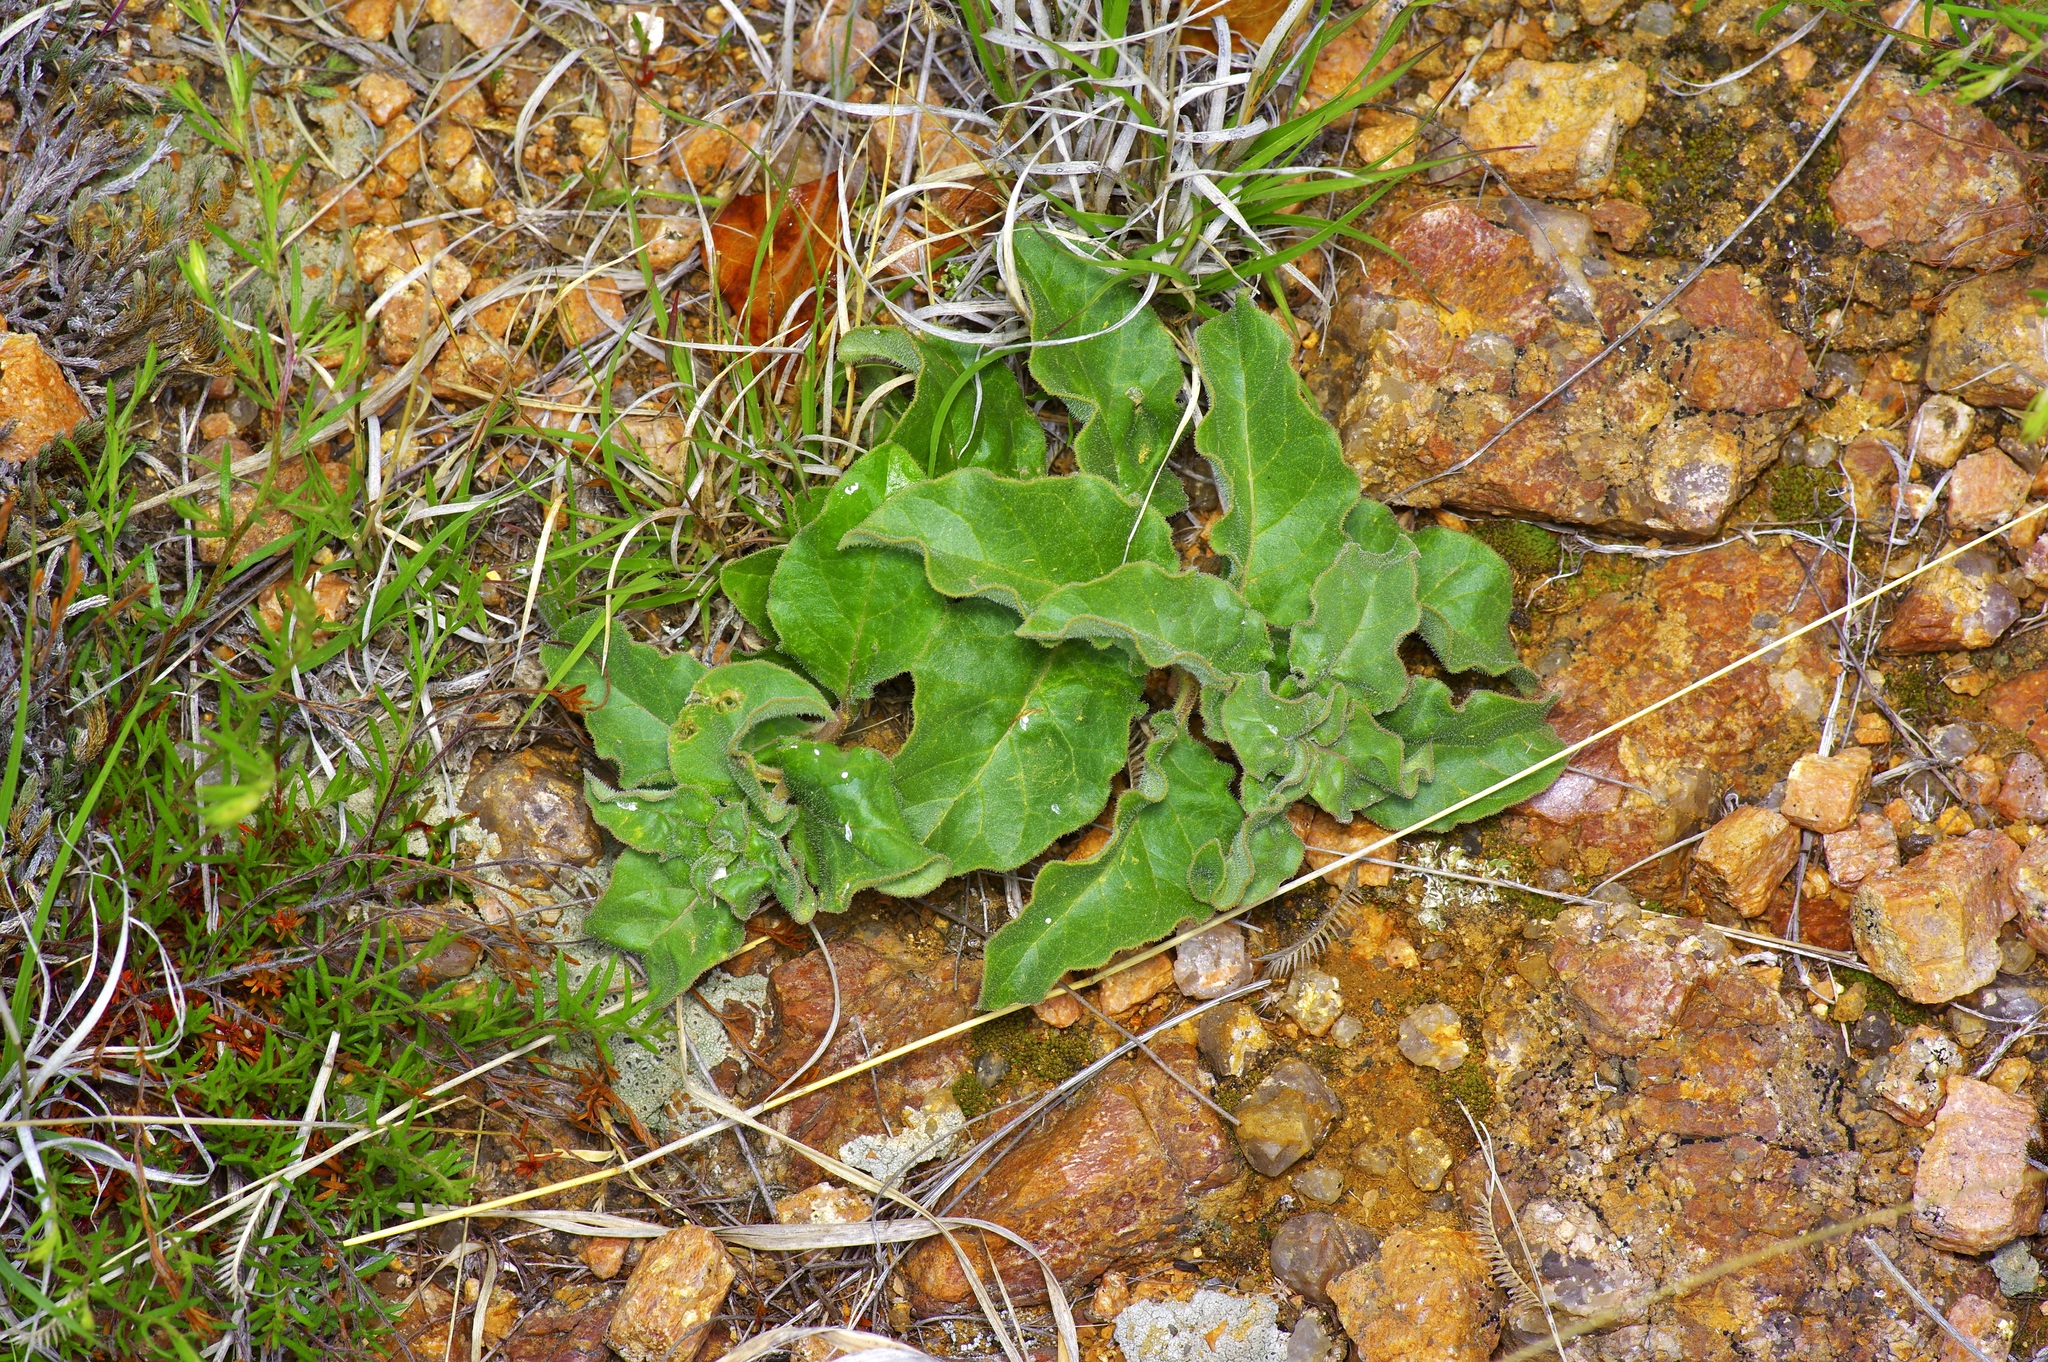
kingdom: Plantae
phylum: Tracheophyta
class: Magnoliopsida
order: Gentianales
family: Apocynaceae
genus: Asclepias
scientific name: Asclepias oenotheroides
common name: Zizotes milkweed
